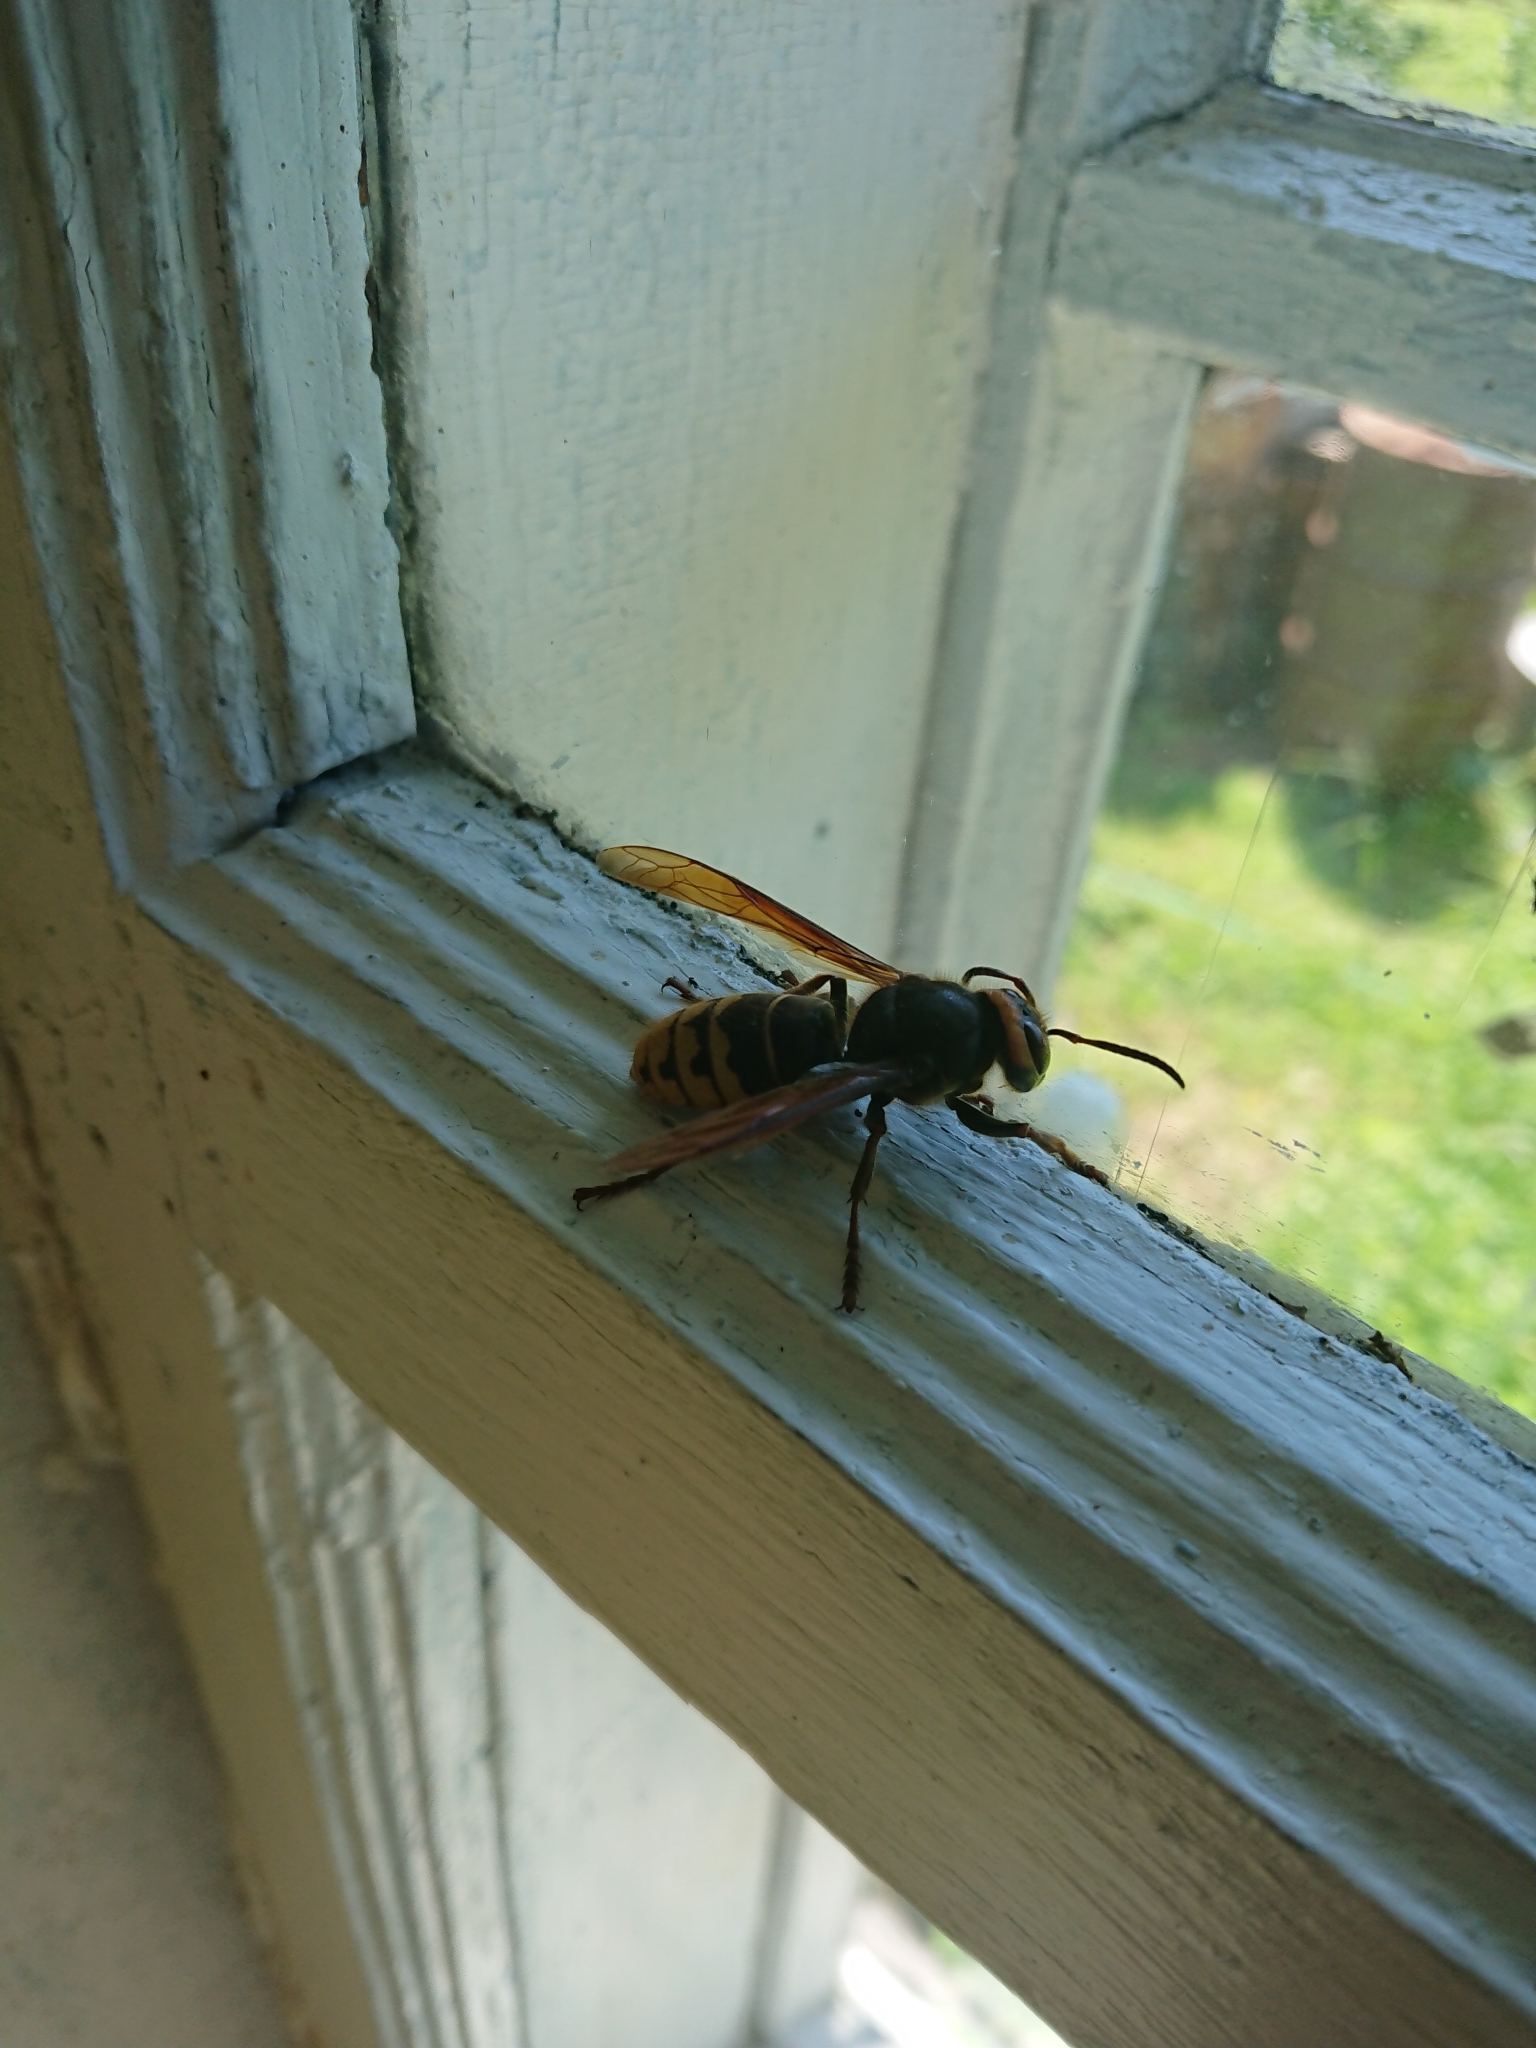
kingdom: Animalia
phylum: Arthropoda
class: Insecta
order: Hymenoptera
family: Vespidae
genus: Vespa
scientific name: Vespa crabro
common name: Hornet
